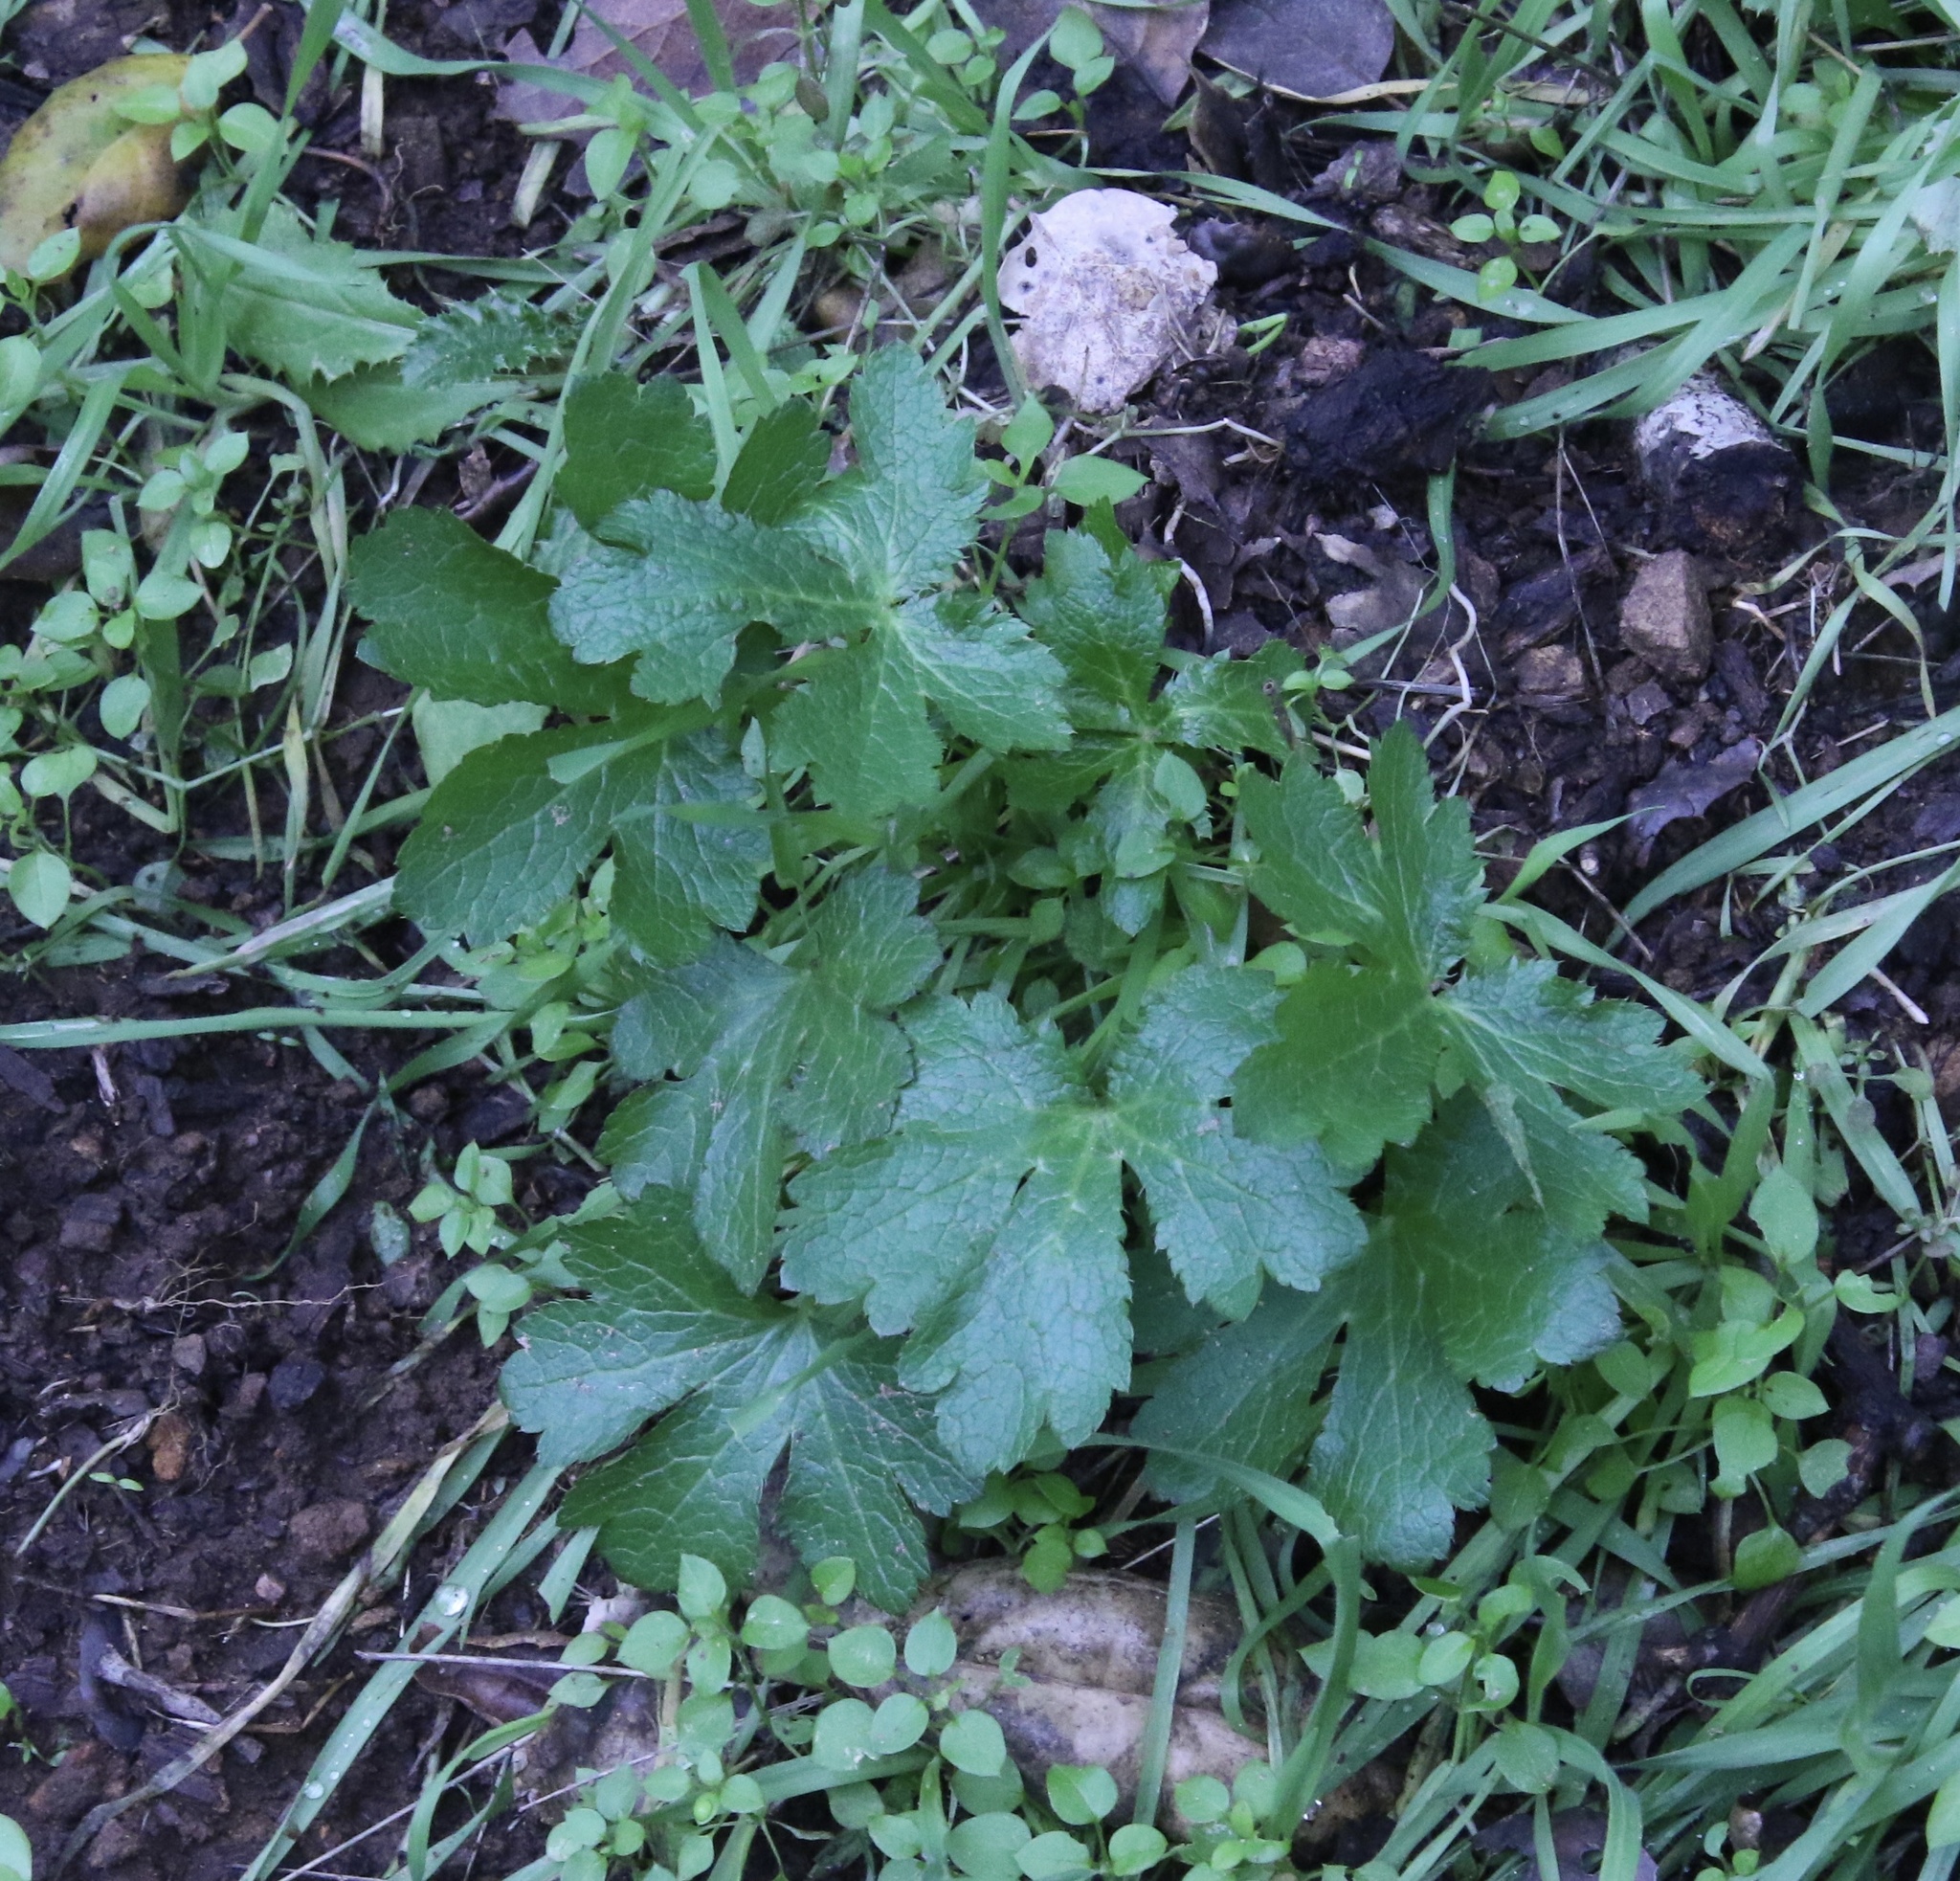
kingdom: Plantae
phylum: Tracheophyta
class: Magnoliopsida
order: Apiales
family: Apiaceae
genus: Sanicula
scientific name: Sanicula crassicaulis
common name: Western snakeroot
